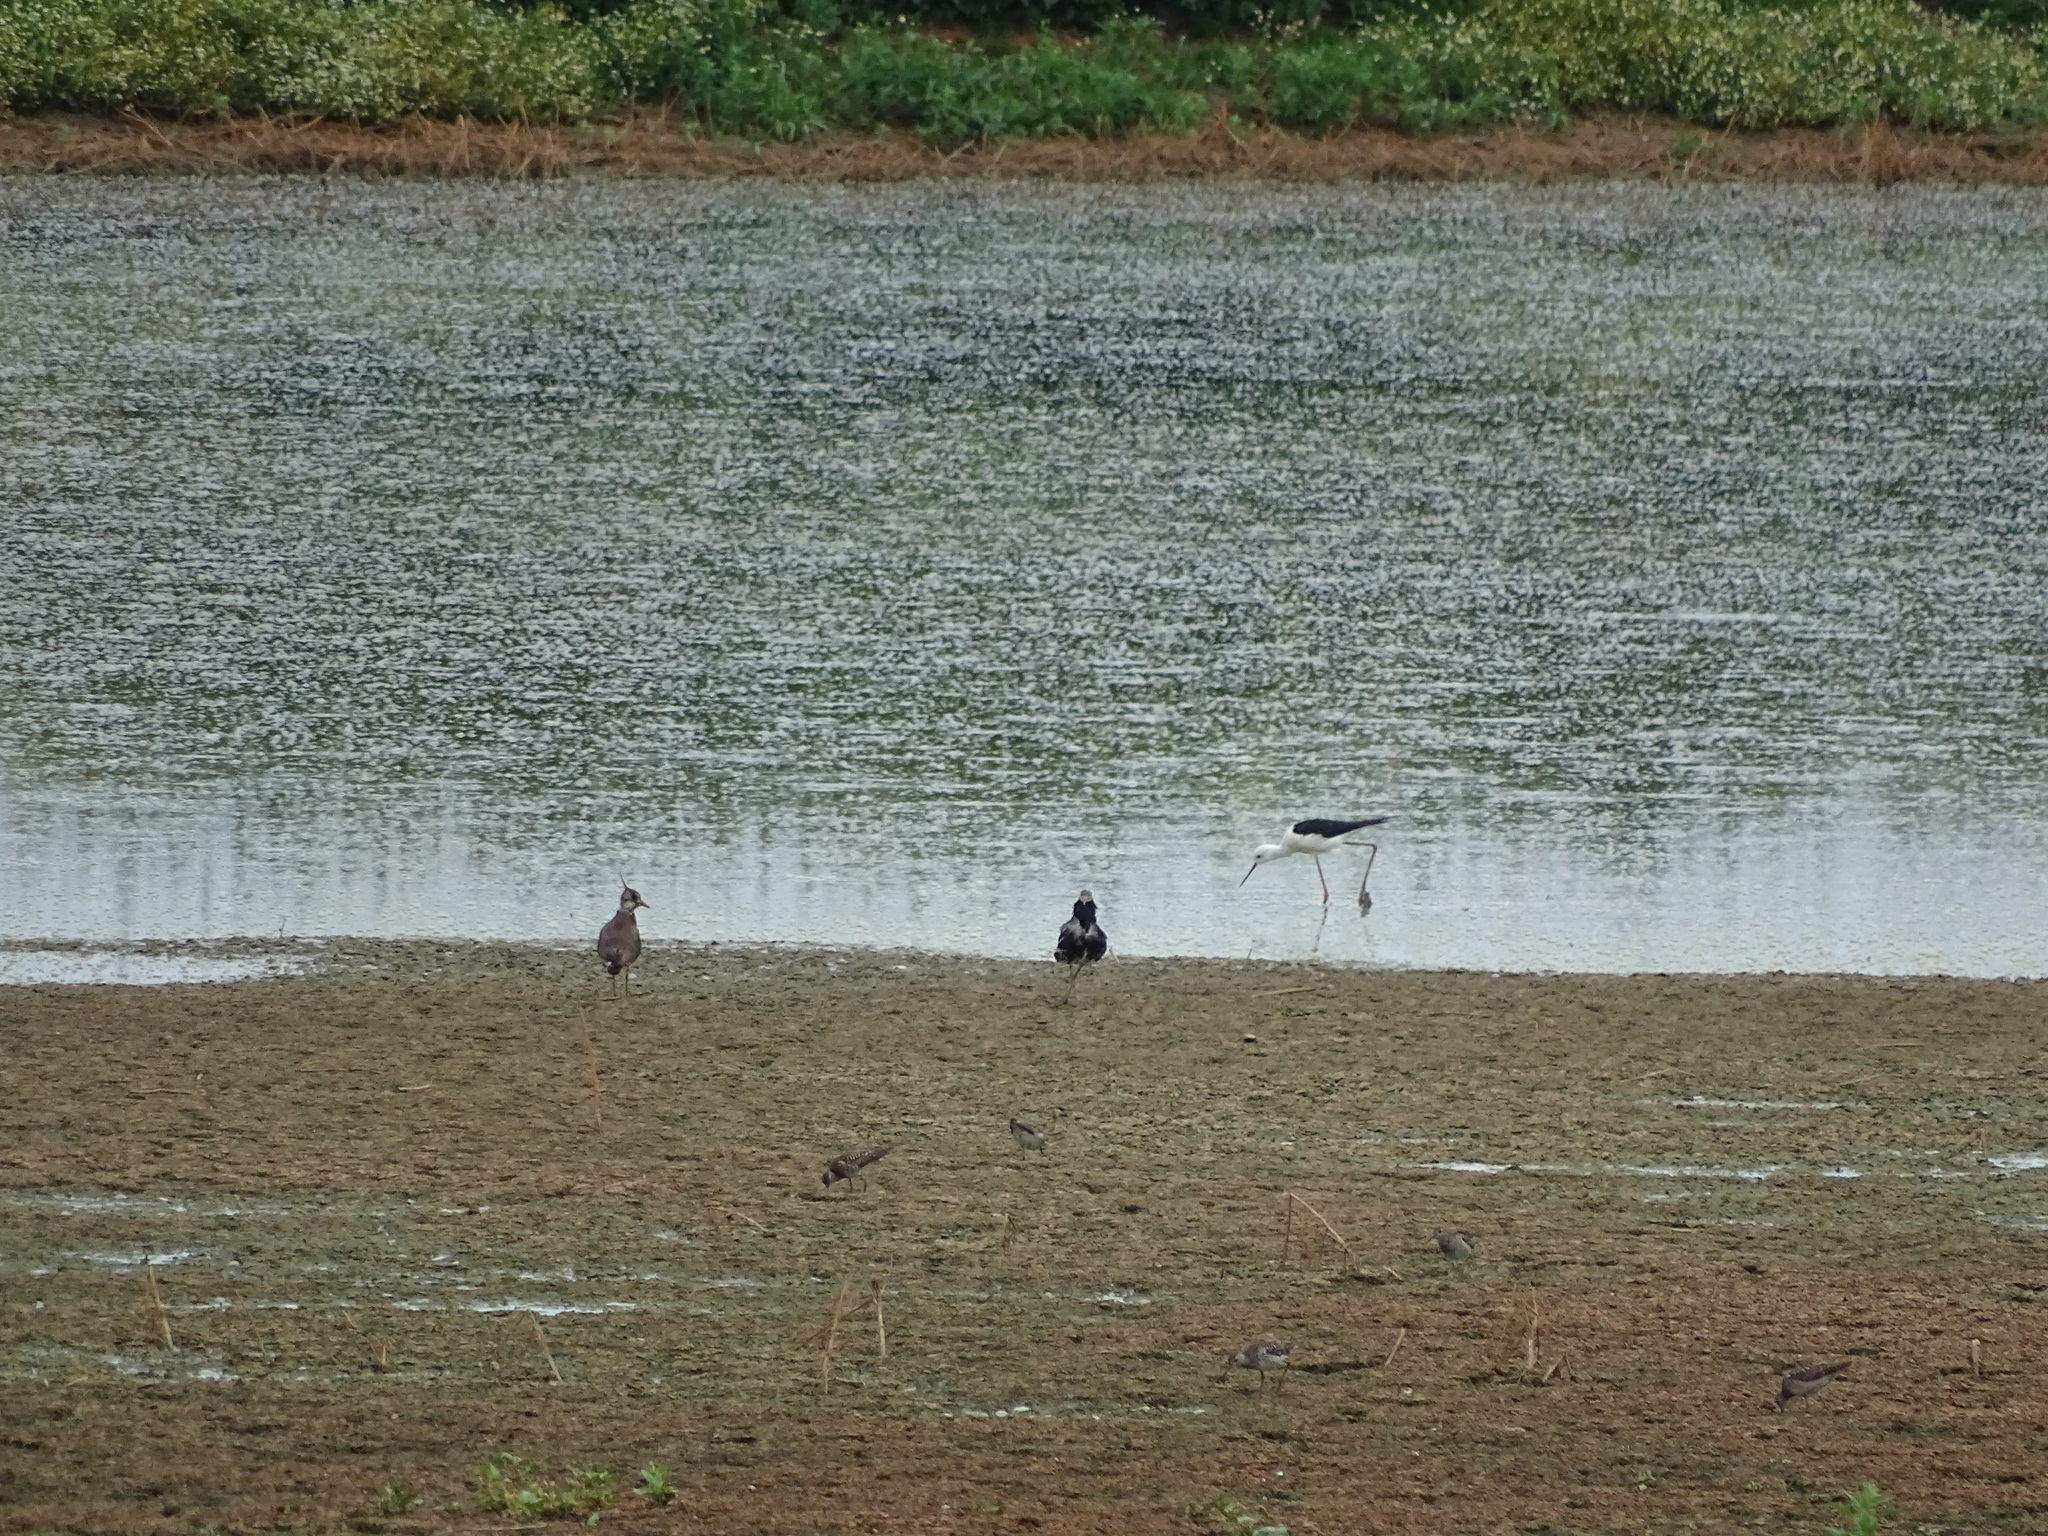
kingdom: Animalia
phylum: Chordata
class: Aves
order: Charadriiformes
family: Recurvirostridae
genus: Himantopus
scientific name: Himantopus himantopus
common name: Black-winged stilt
